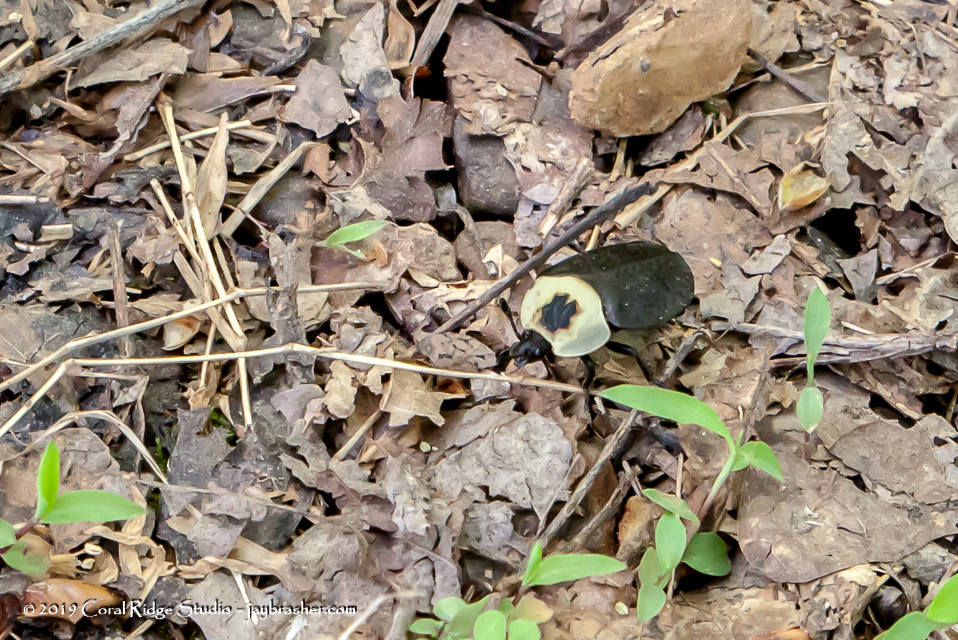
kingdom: Animalia
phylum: Arthropoda
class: Insecta
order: Coleoptera
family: Staphylinidae
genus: Necrophila
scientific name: Necrophila americana
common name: American carrion beetle
